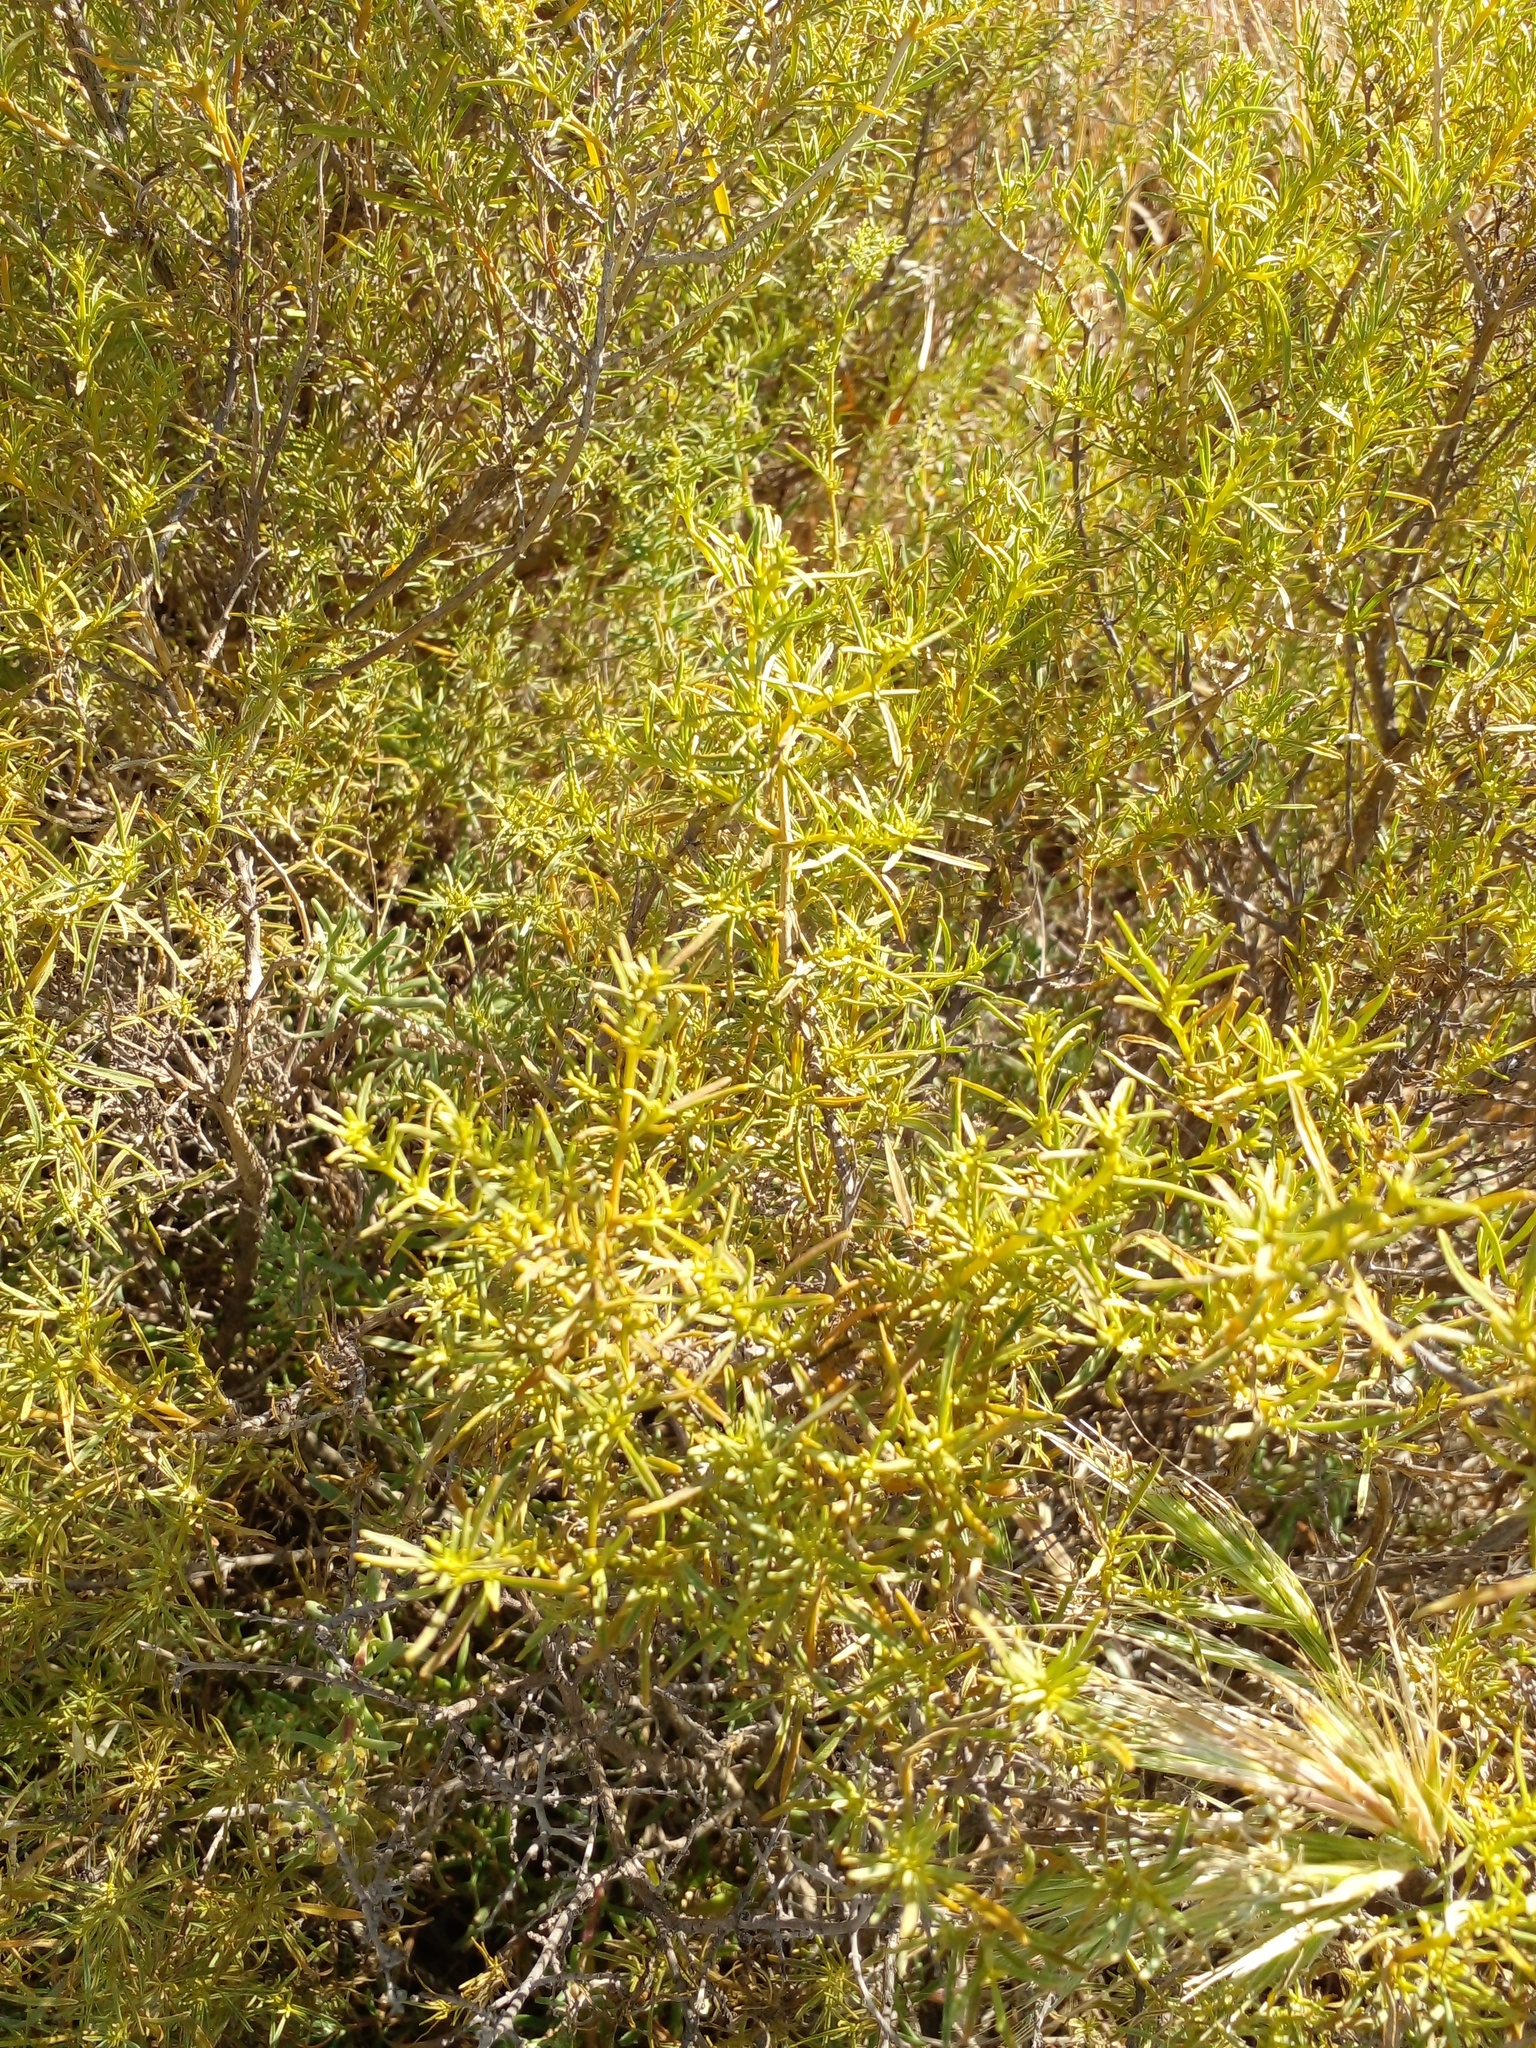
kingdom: Plantae
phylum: Tracheophyta
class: Magnoliopsida
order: Caryophyllales
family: Aizoaceae
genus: Aizoon
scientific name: Aizoon africanum
